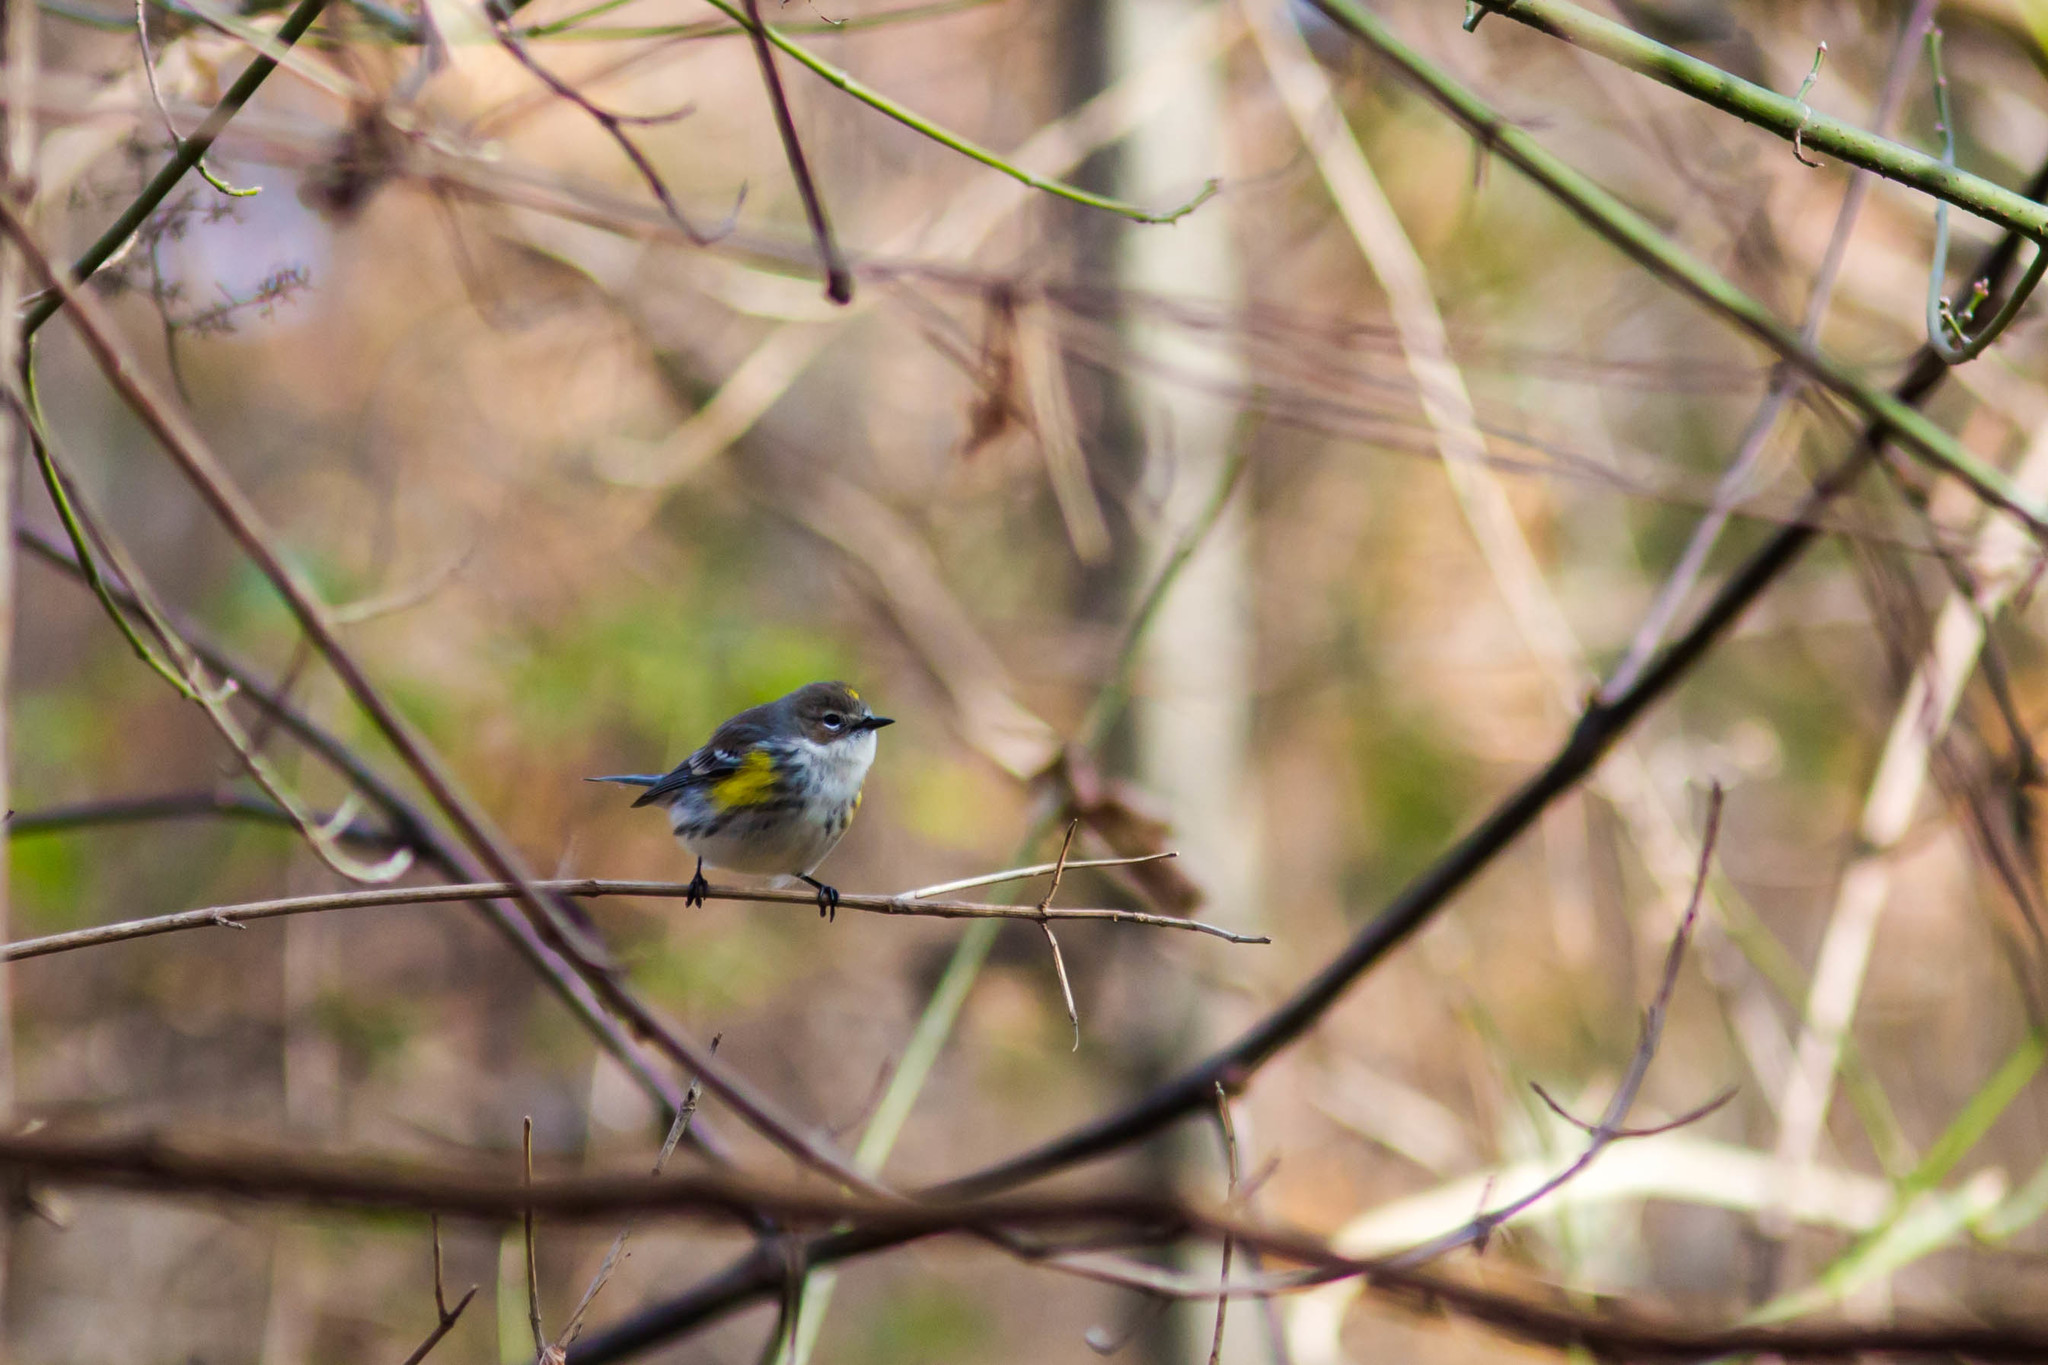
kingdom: Animalia
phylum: Chordata
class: Aves
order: Passeriformes
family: Parulidae
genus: Setophaga
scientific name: Setophaga coronata
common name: Myrtle warbler
